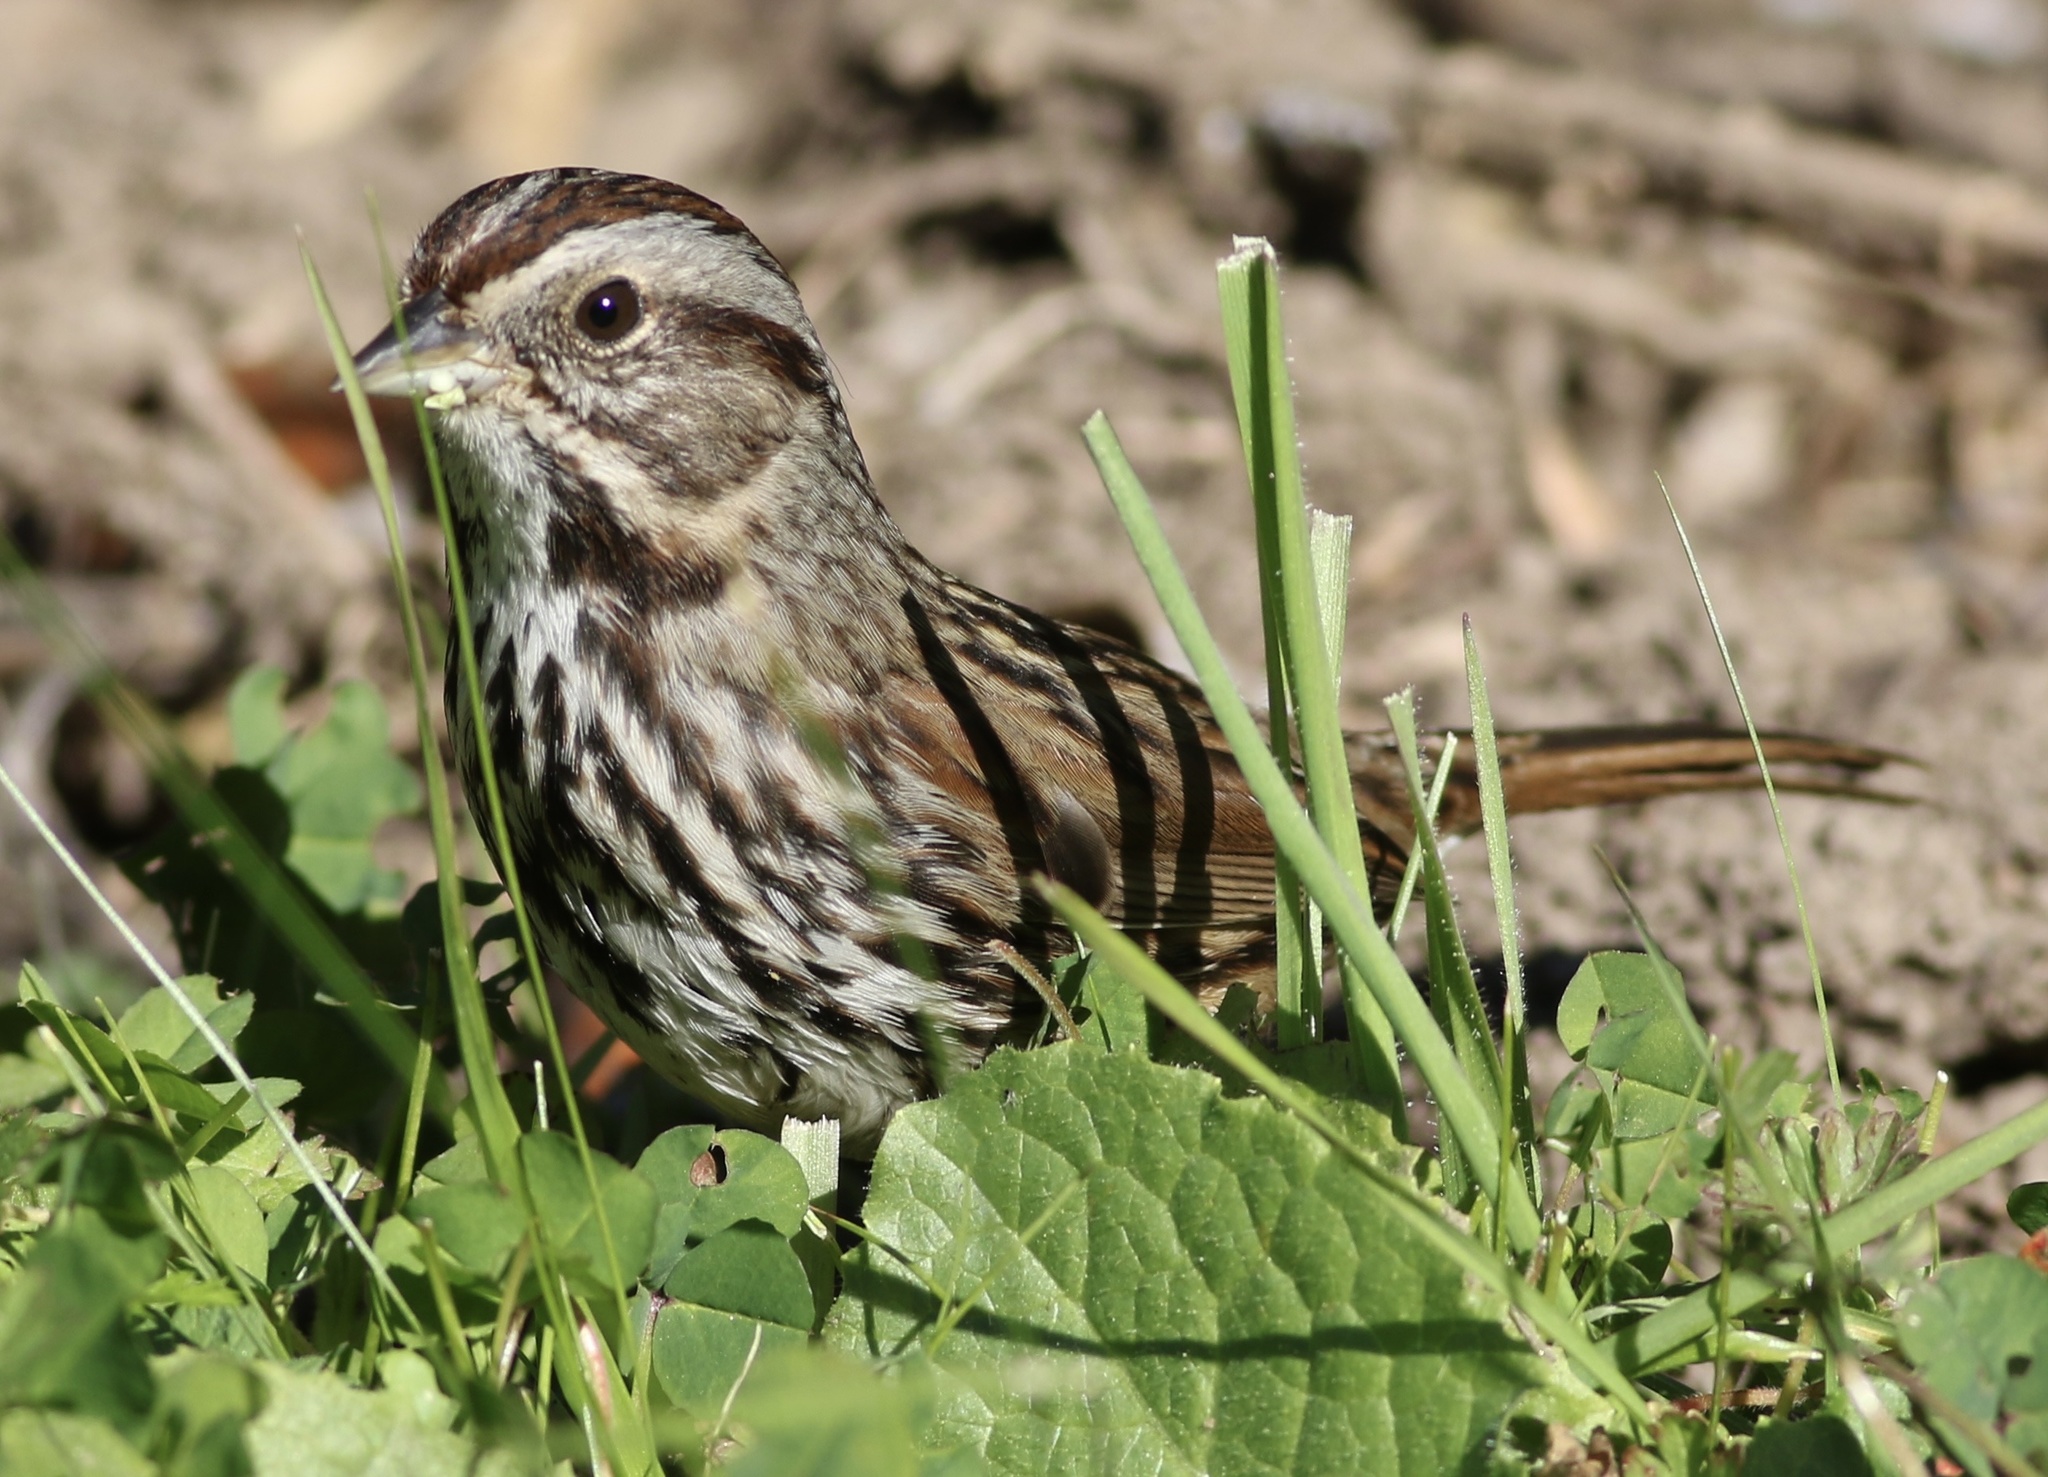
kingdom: Animalia
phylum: Chordata
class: Aves
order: Passeriformes
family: Passerellidae
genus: Melospiza
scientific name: Melospiza melodia
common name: Song sparrow
